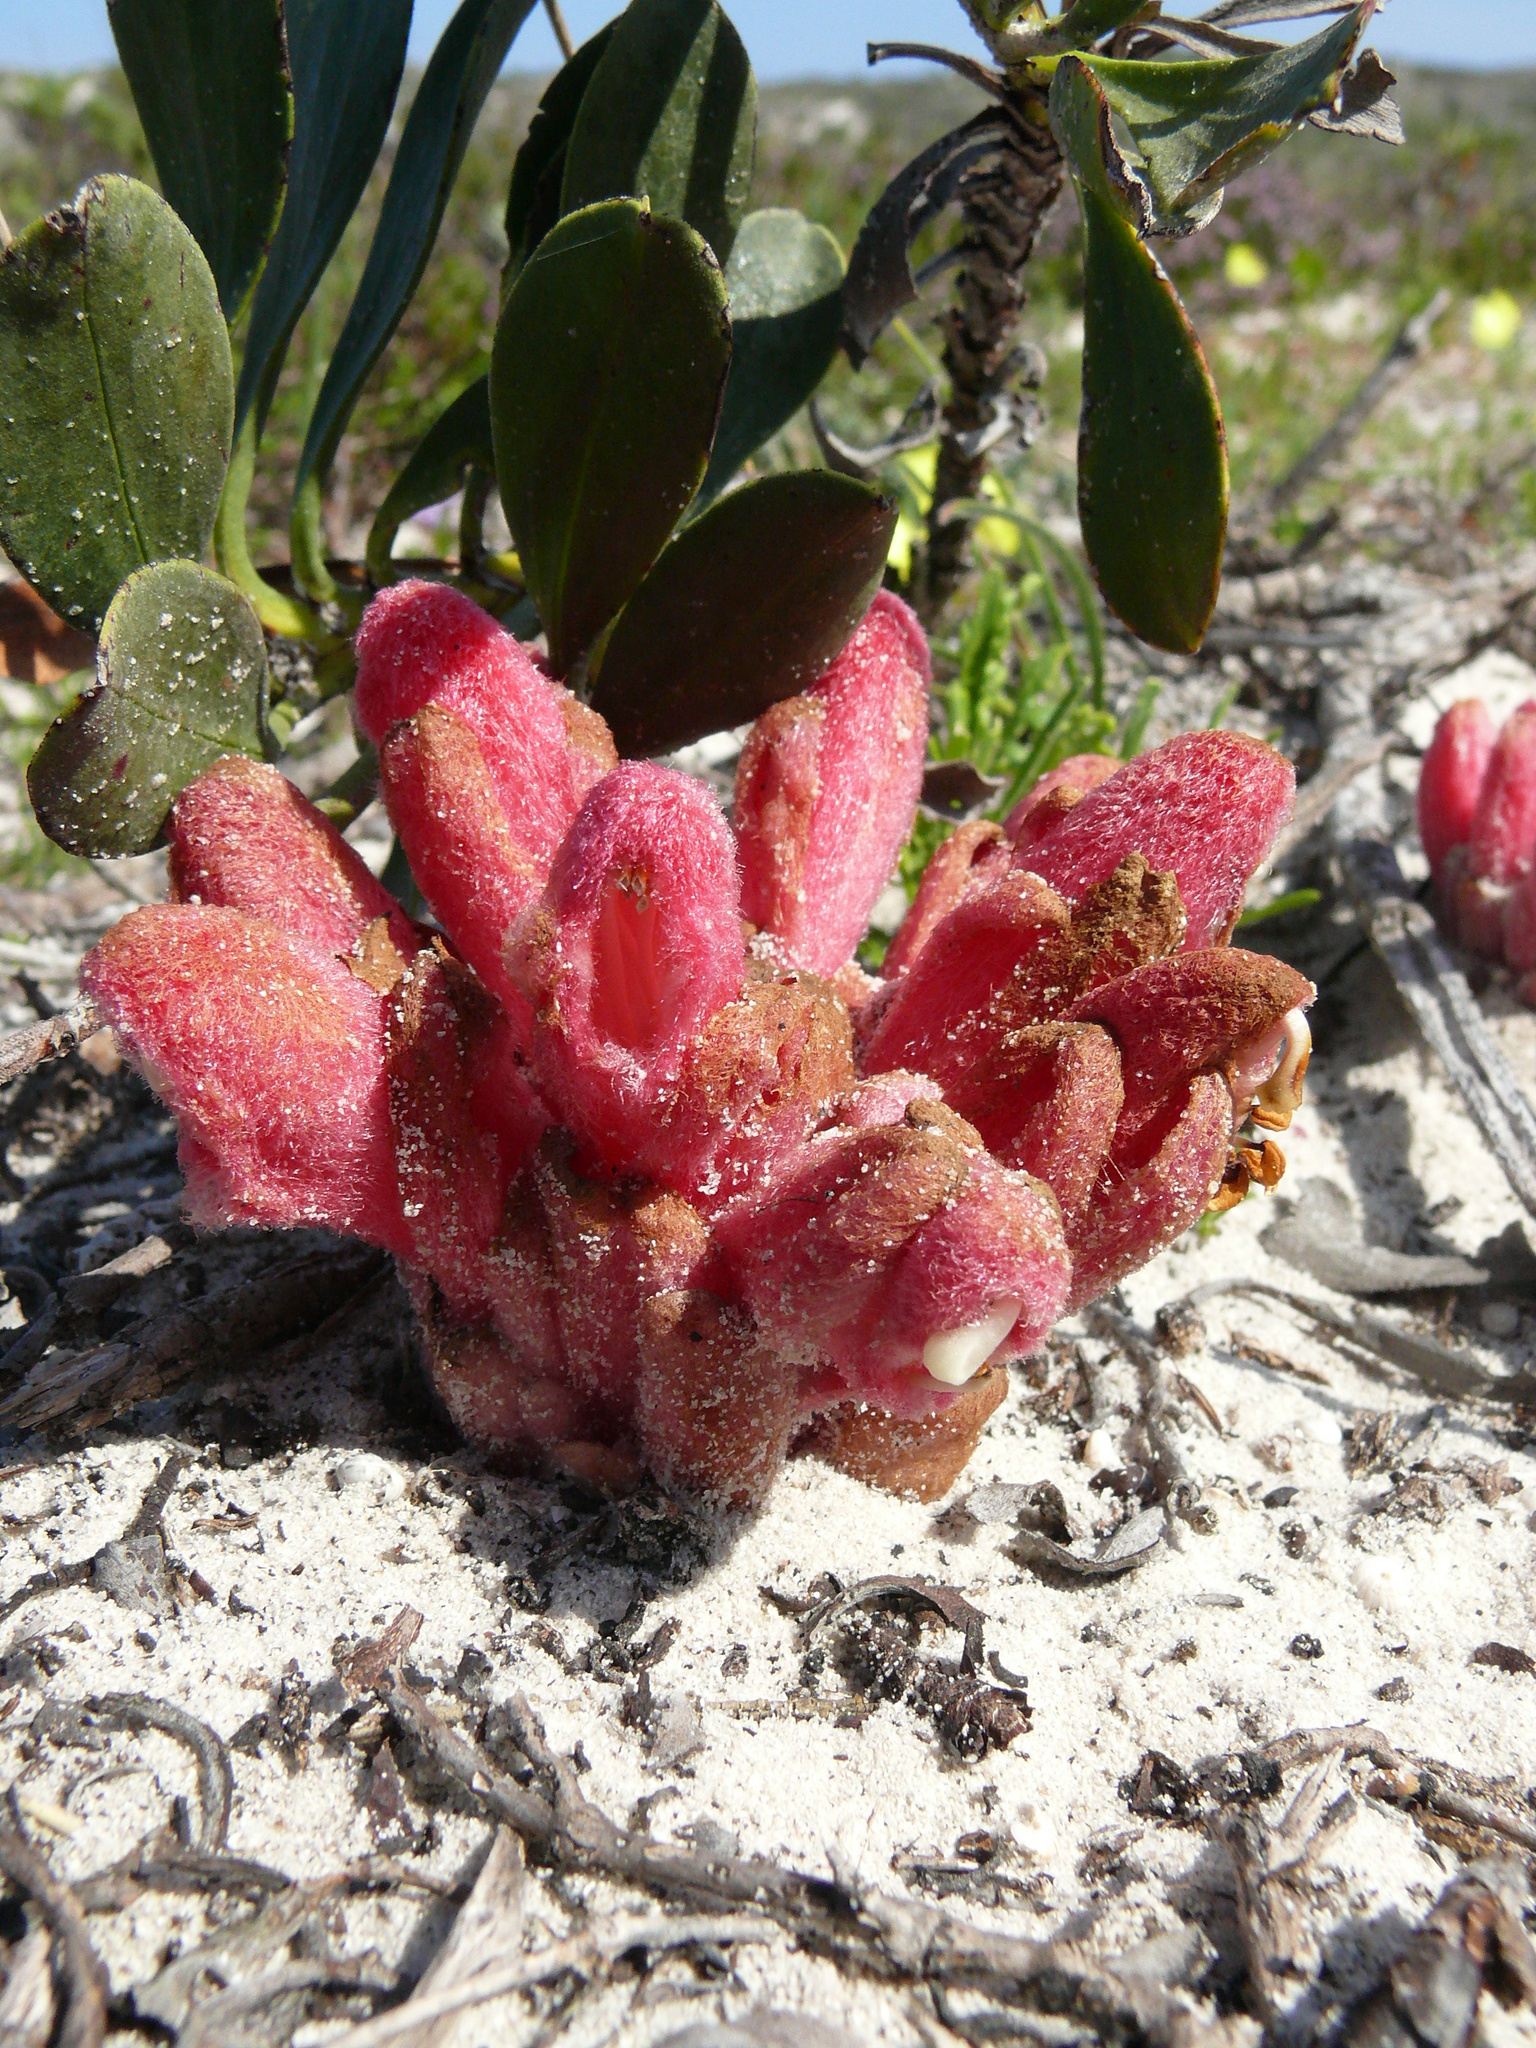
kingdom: Plantae
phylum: Tracheophyta
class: Magnoliopsida
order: Lamiales
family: Orobanchaceae
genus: Hyobanche
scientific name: Hyobanche sanguinea
